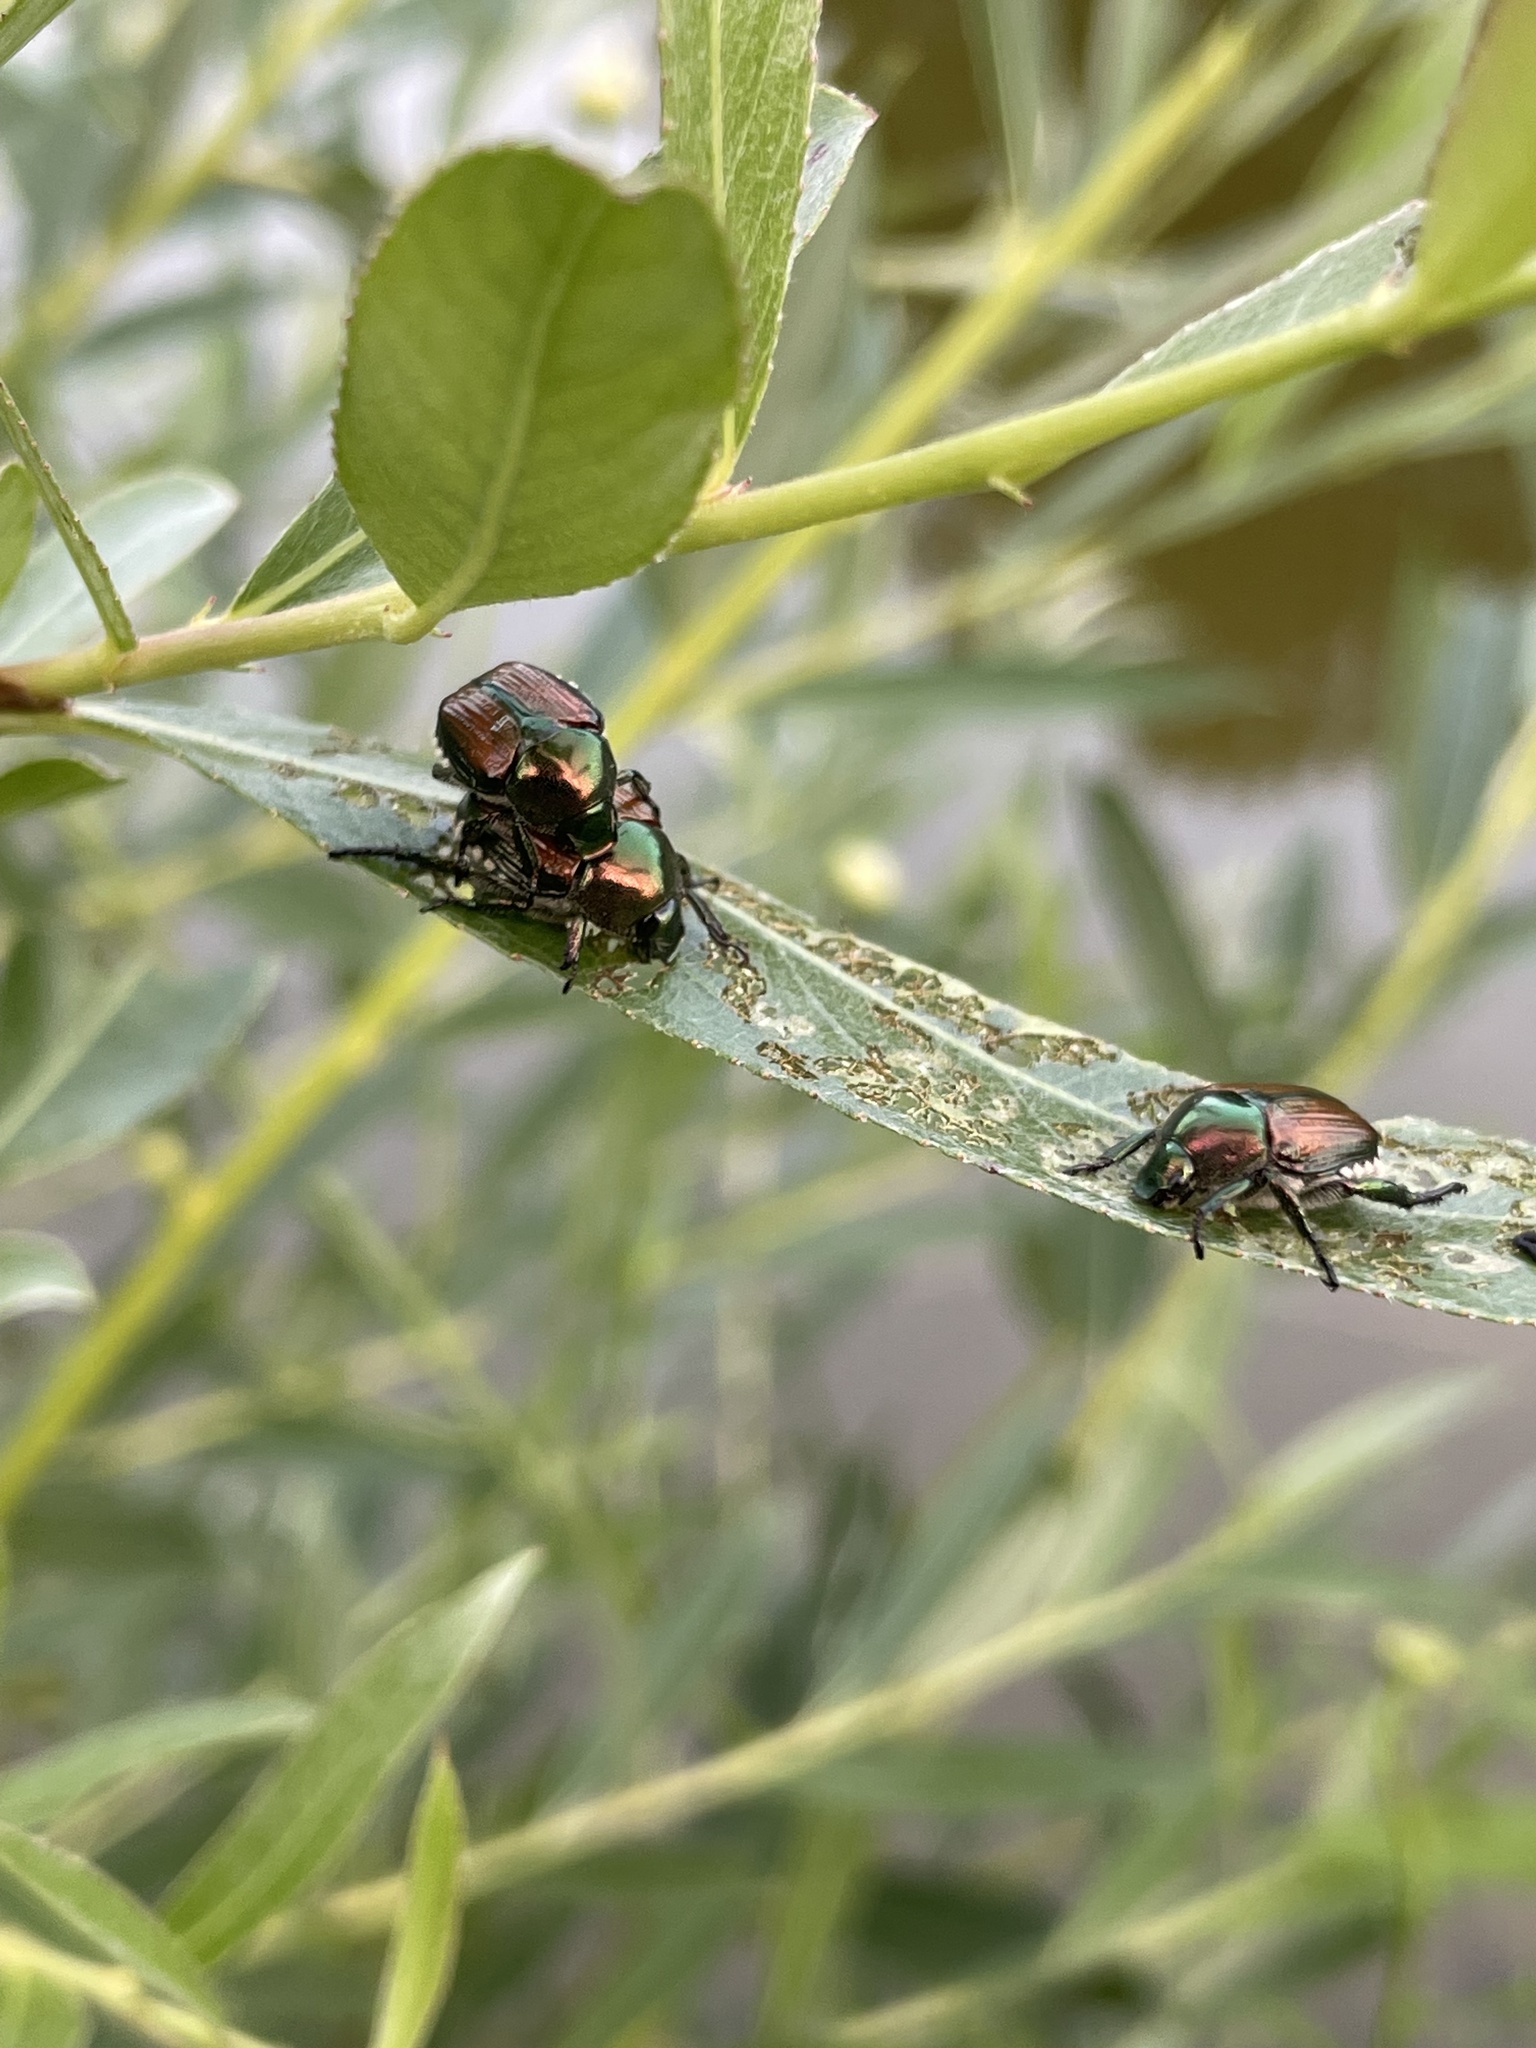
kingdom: Animalia
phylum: Arthropoda
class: Insecta
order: Coleoptera
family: Scarabaeidae
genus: Popillia
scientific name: Popillia japonica
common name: Japanese beetle
